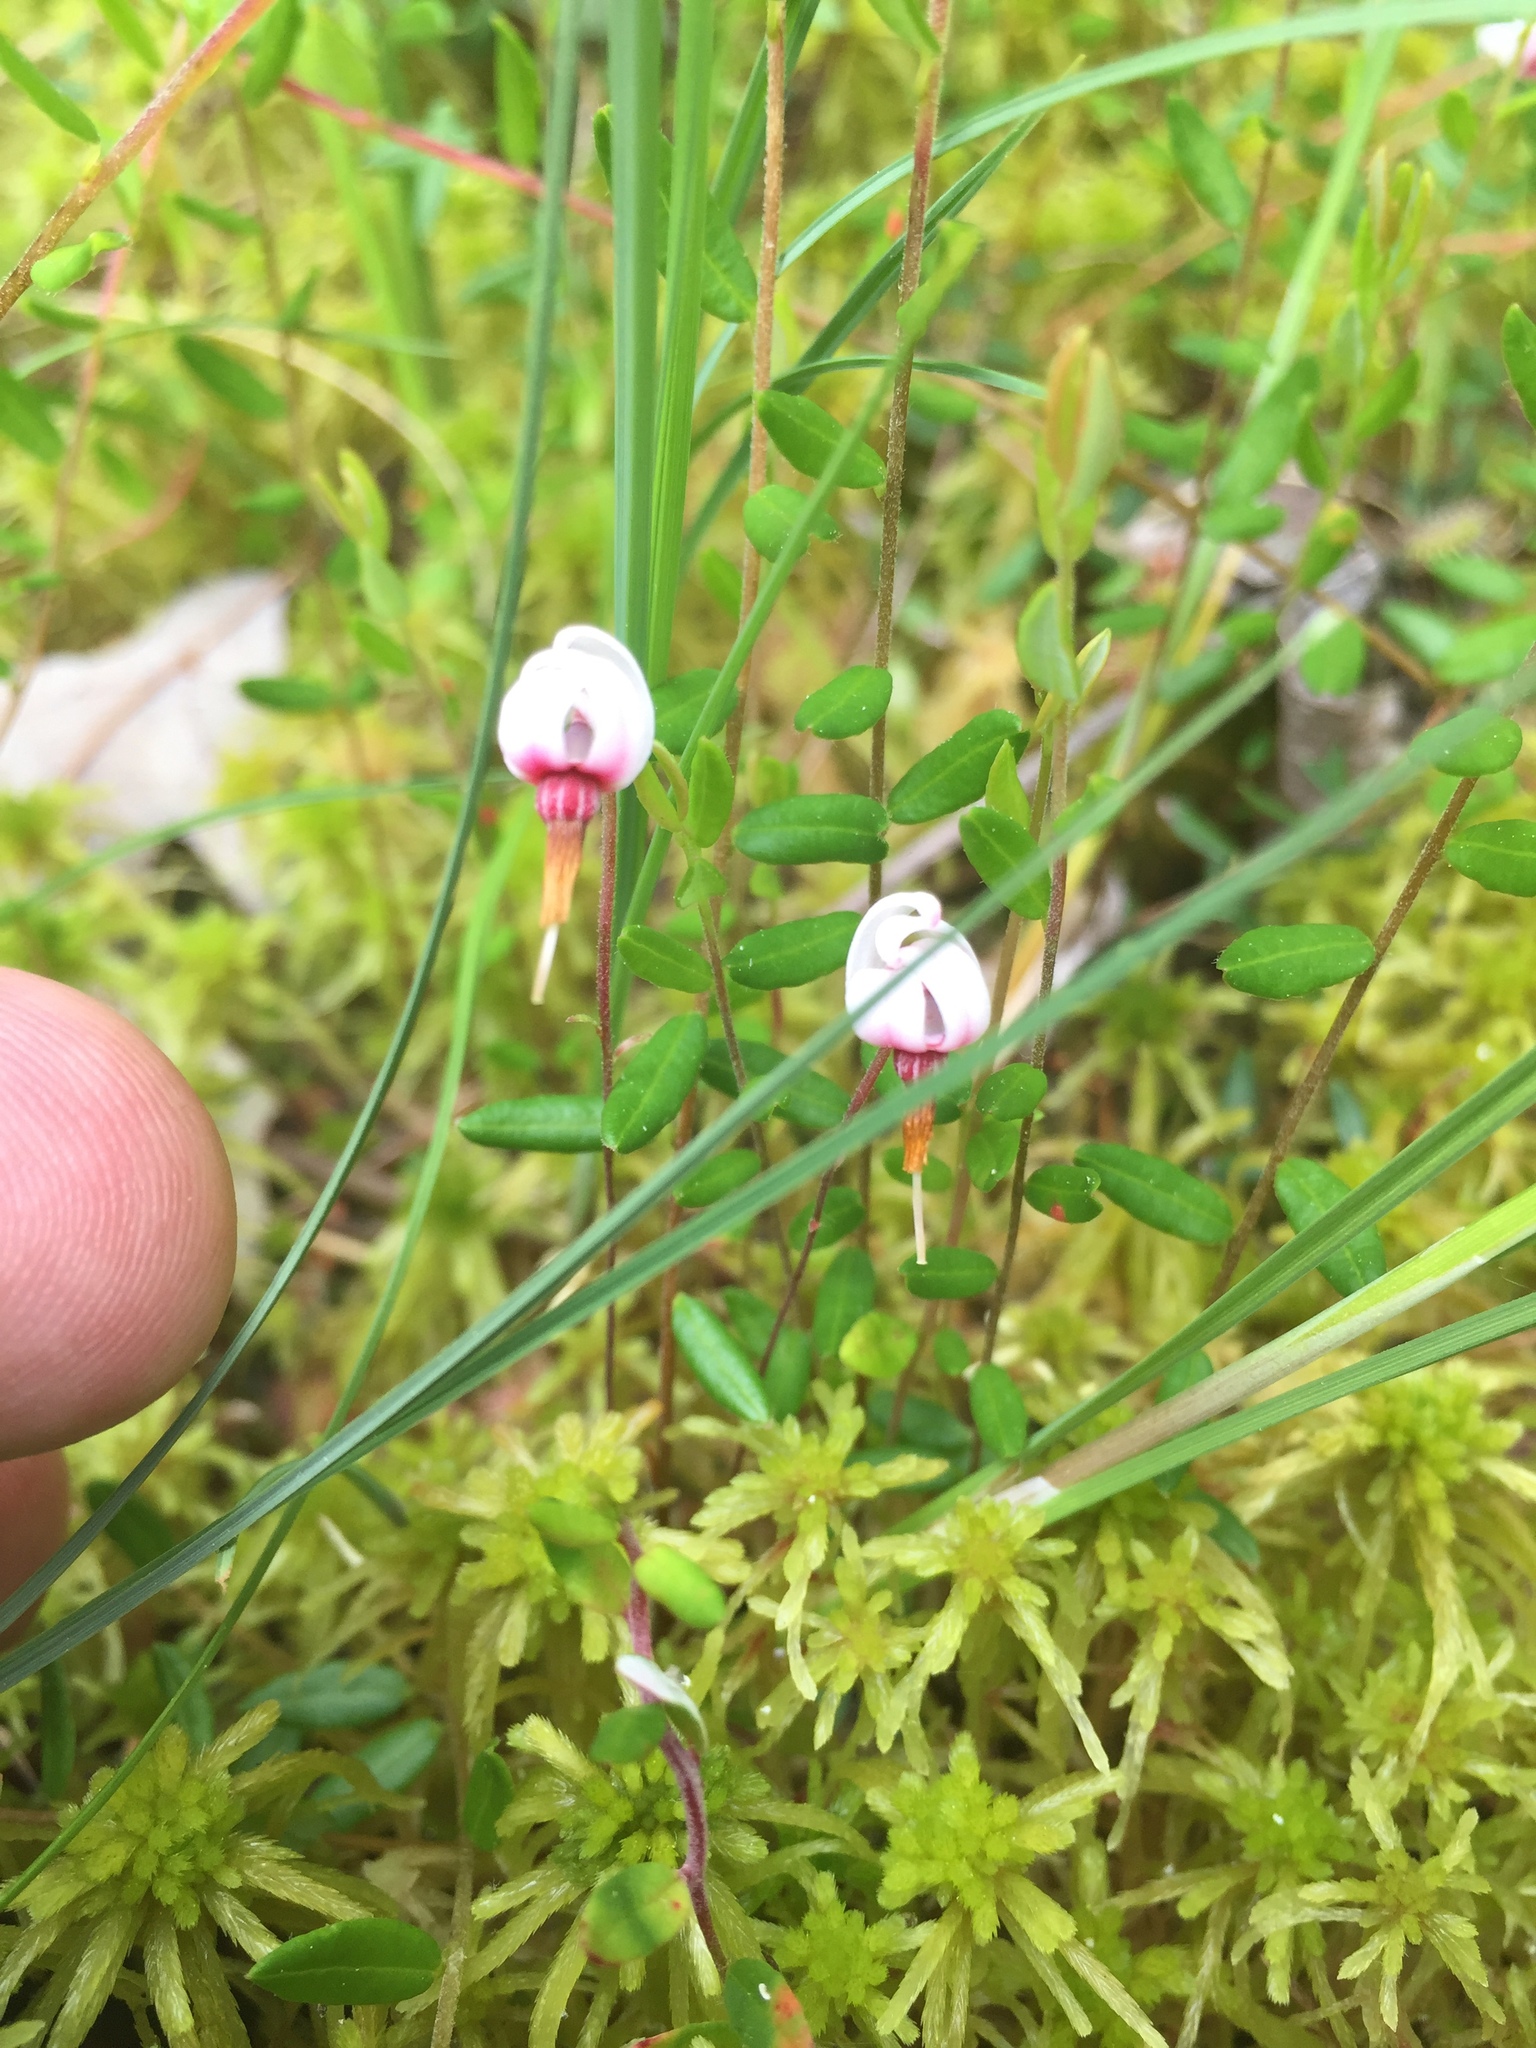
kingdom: Plantae
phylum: Tracheophyta
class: Magnoliopsida
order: Ericales
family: Ericaceae
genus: Vaccinium
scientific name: Vaccinium oxycoccos
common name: Cranberry
